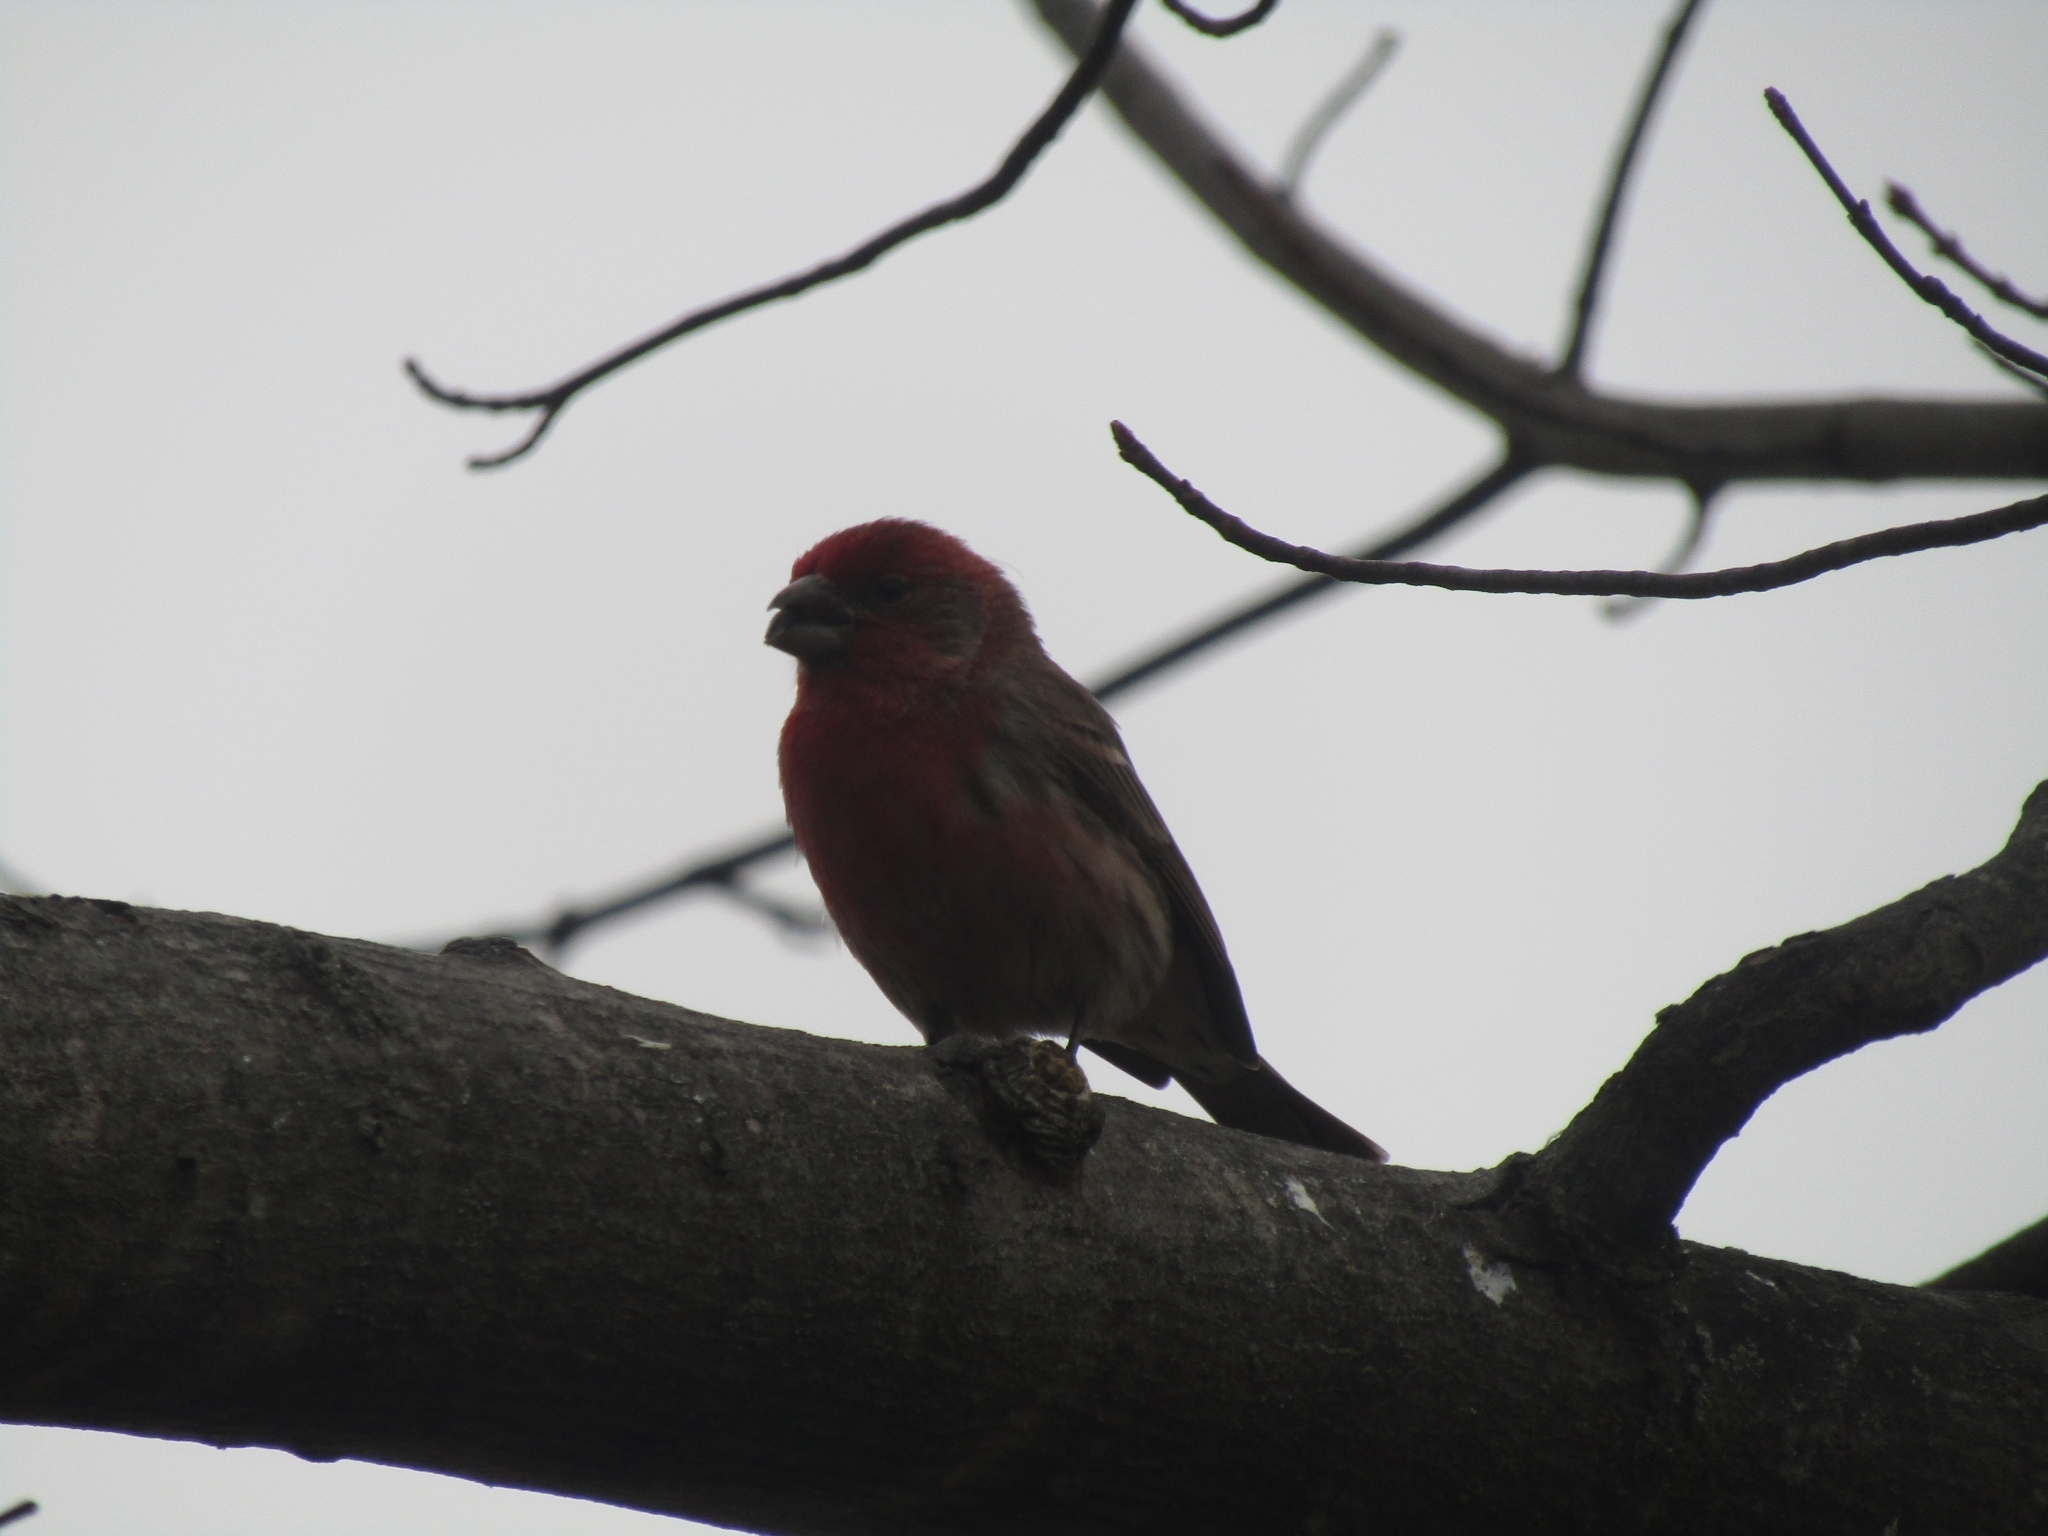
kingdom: Animalia
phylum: Chordata
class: Aves
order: Passeriformes
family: Fringillidae
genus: Haemorhous
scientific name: Haemorhous mexicanus
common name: House finch
